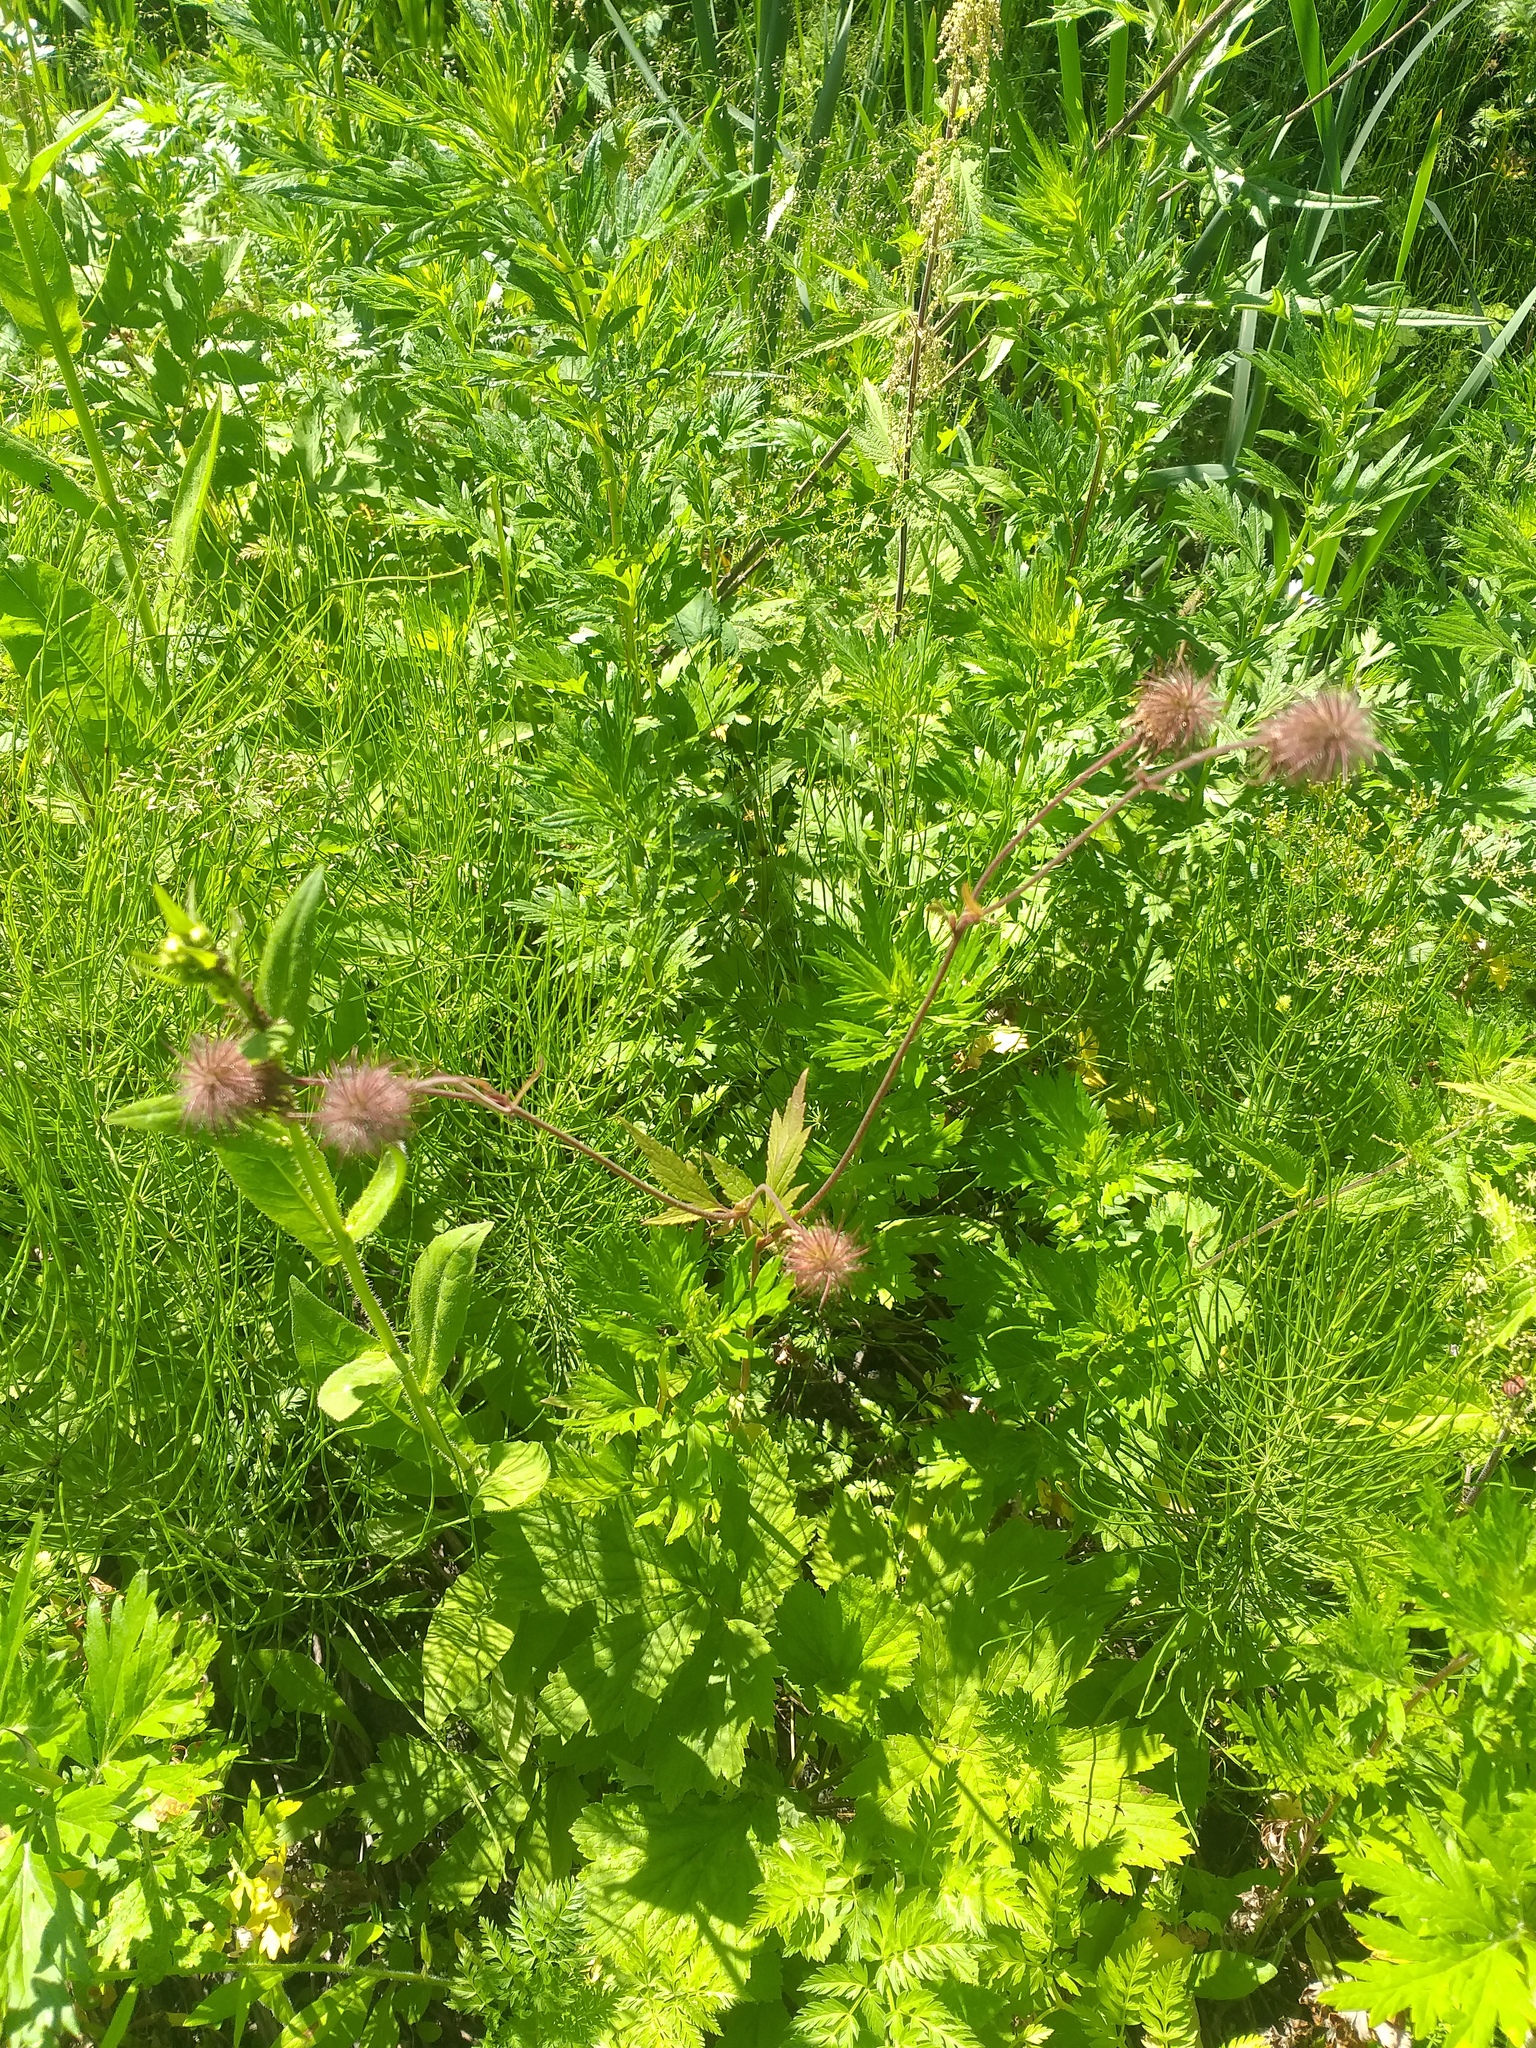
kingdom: Plantae
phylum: Tracheophyta
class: Magnoliopsida
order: Rosales
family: Rosaceae
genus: Geum
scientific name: Geum rivale
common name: Water avens
